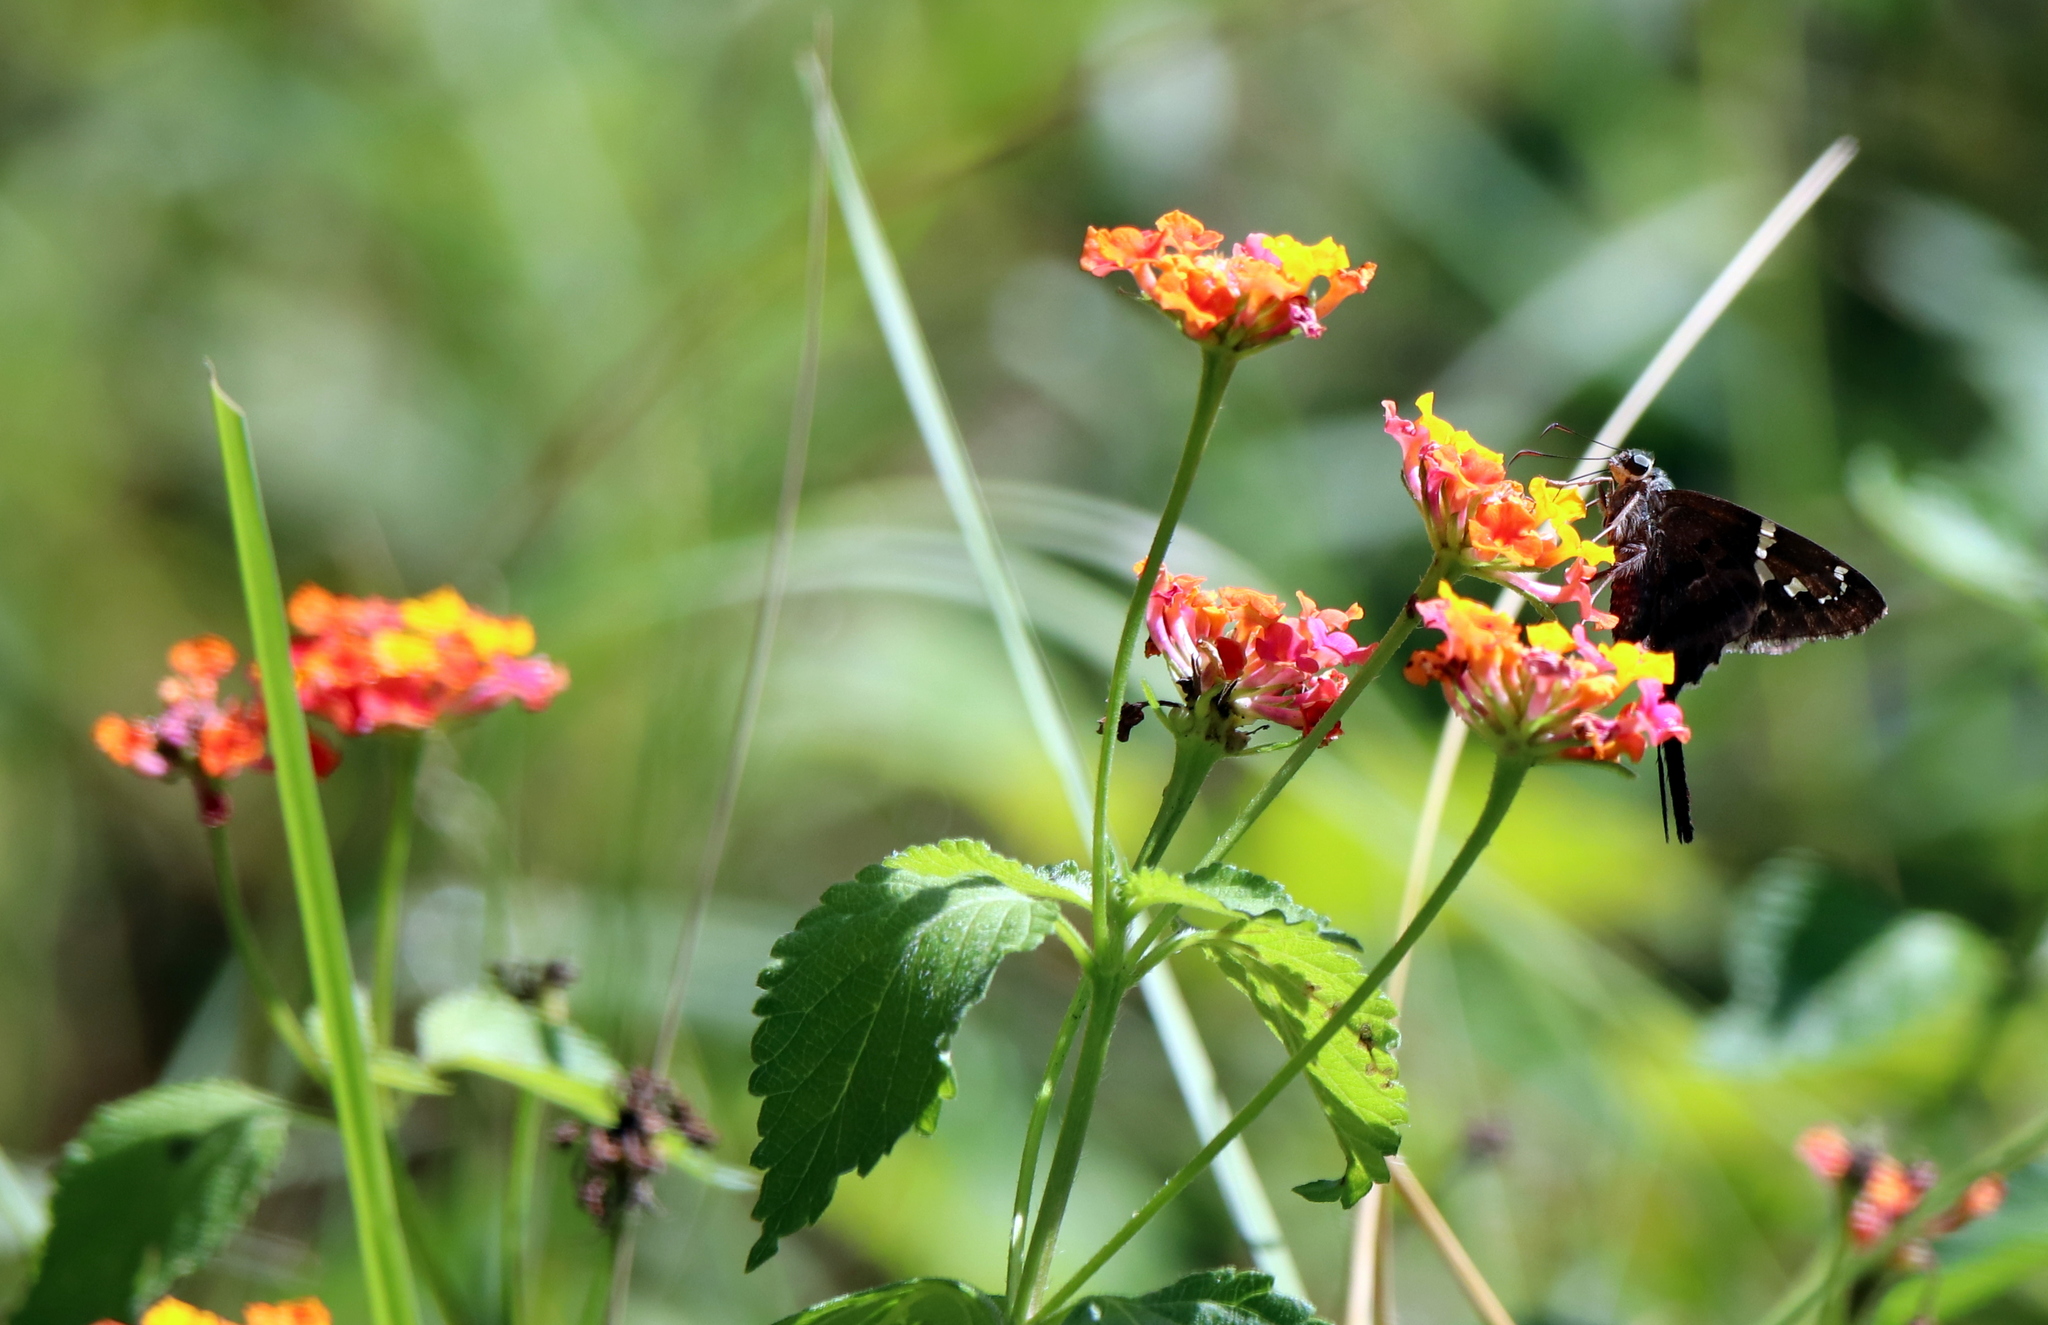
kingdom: Animalia
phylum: Arthropoda
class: Insecta
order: Lepidoptera
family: Hesperiidae
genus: Urbanus
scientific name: Urbanus proteus
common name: Long-tailed skipper
